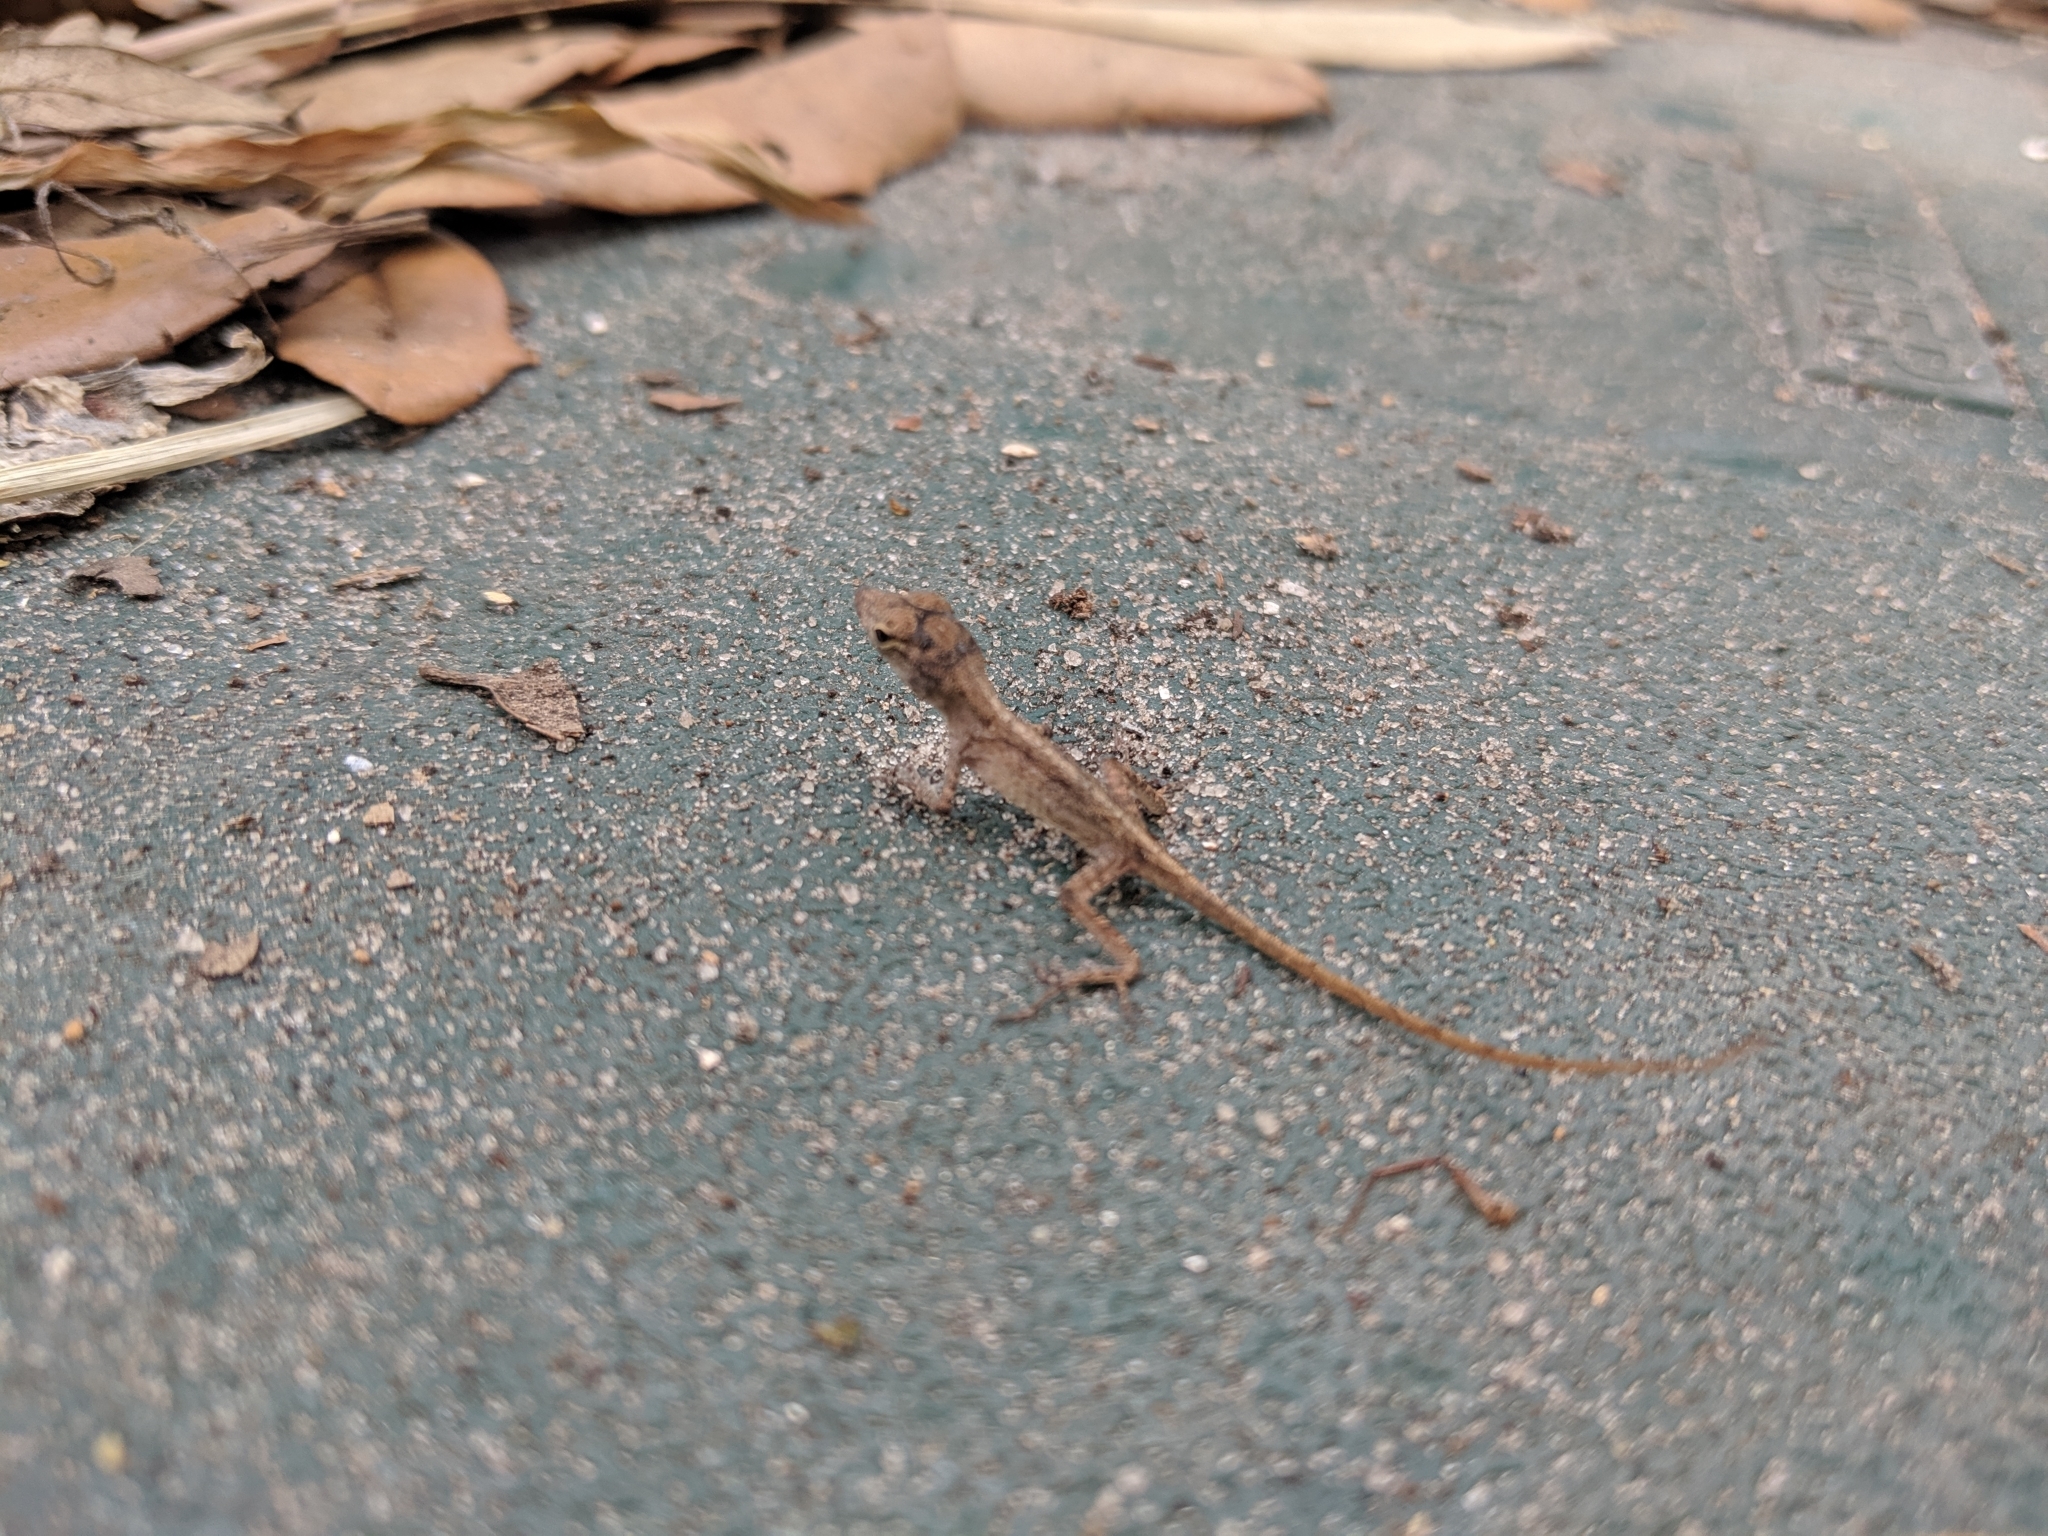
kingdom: Animalia
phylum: Chordata
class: Squamata
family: Dactyloidae
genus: Anolis
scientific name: Anolis sagrei
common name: Brown anole
